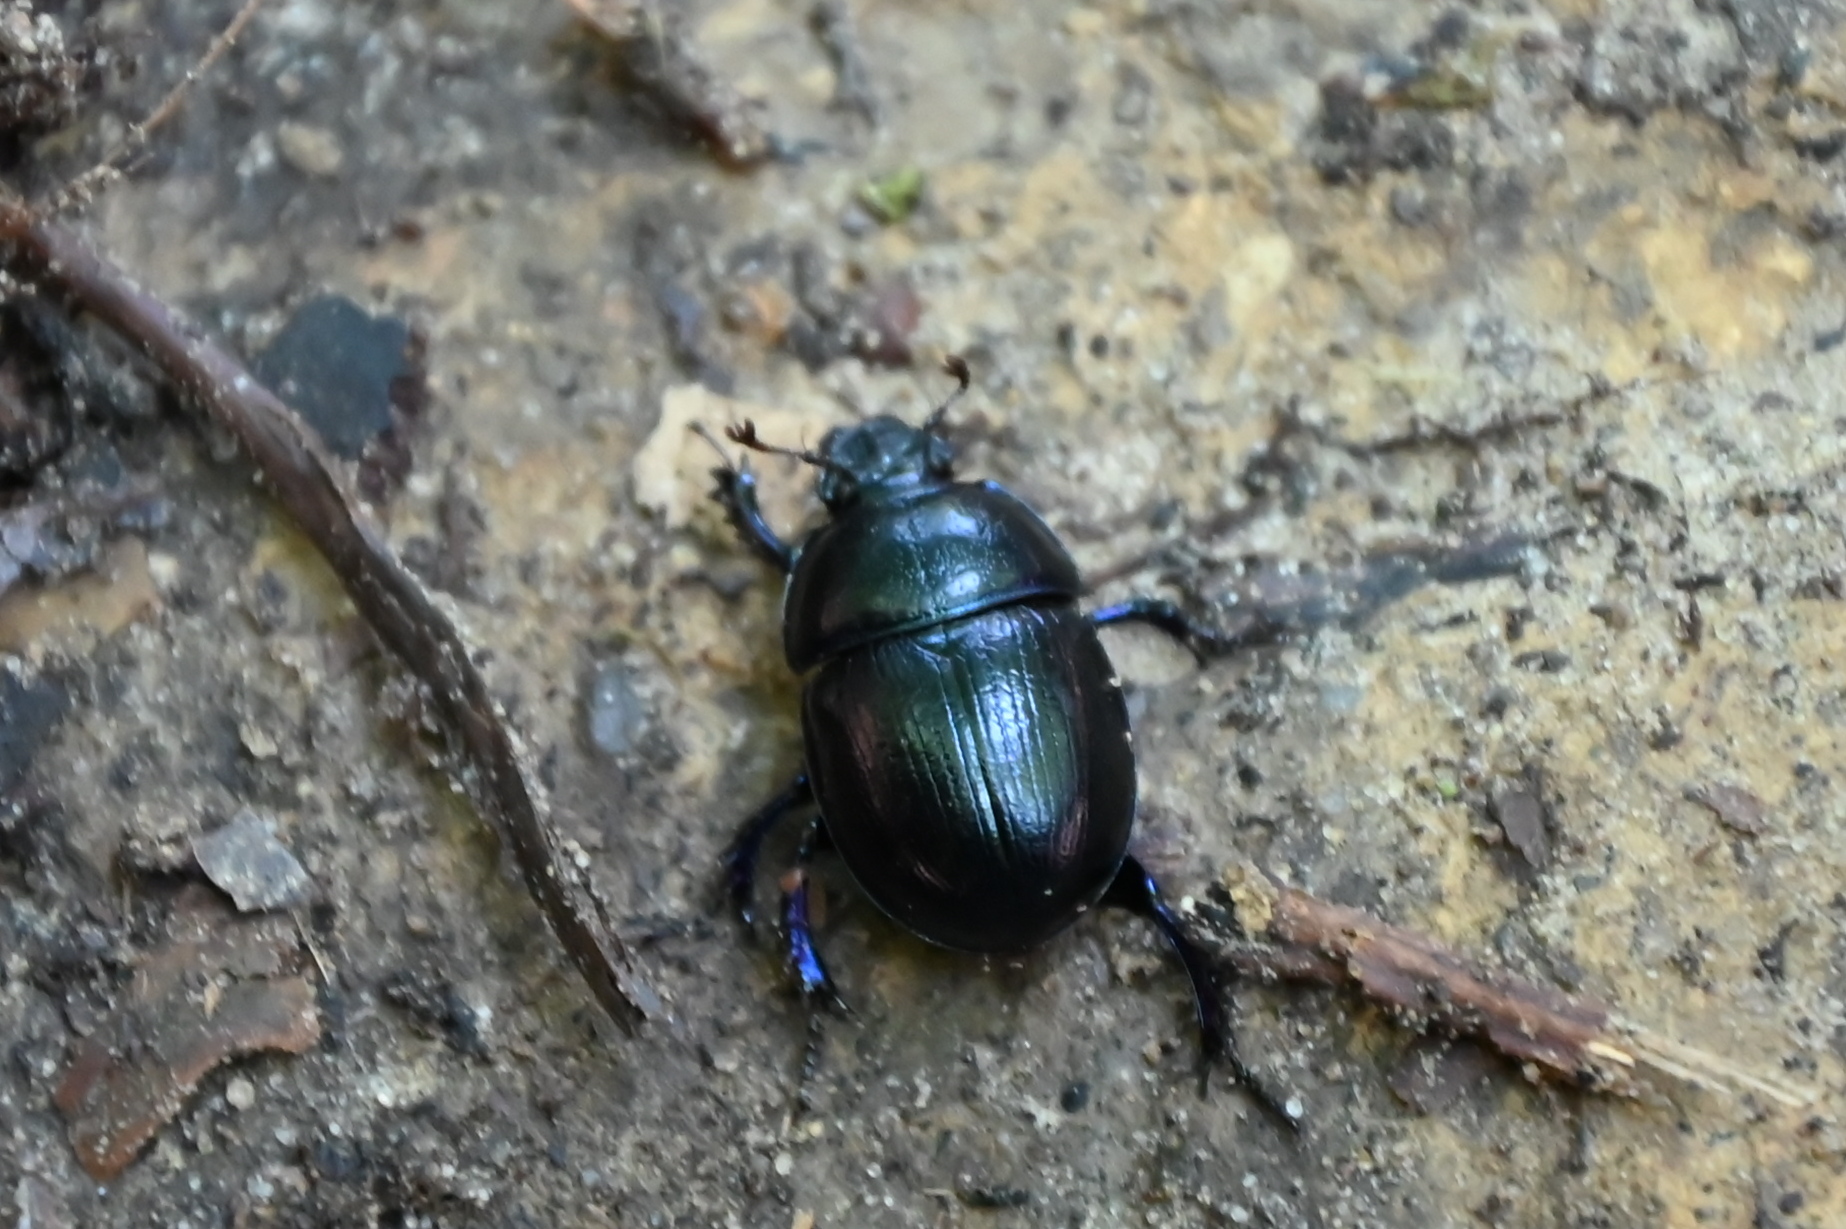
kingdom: Animalia
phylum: Arthropoda
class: Insecta
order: Coleoptera
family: Geotrupidae
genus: Anoplotrupes
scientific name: Anoplotrupes stercorosus
